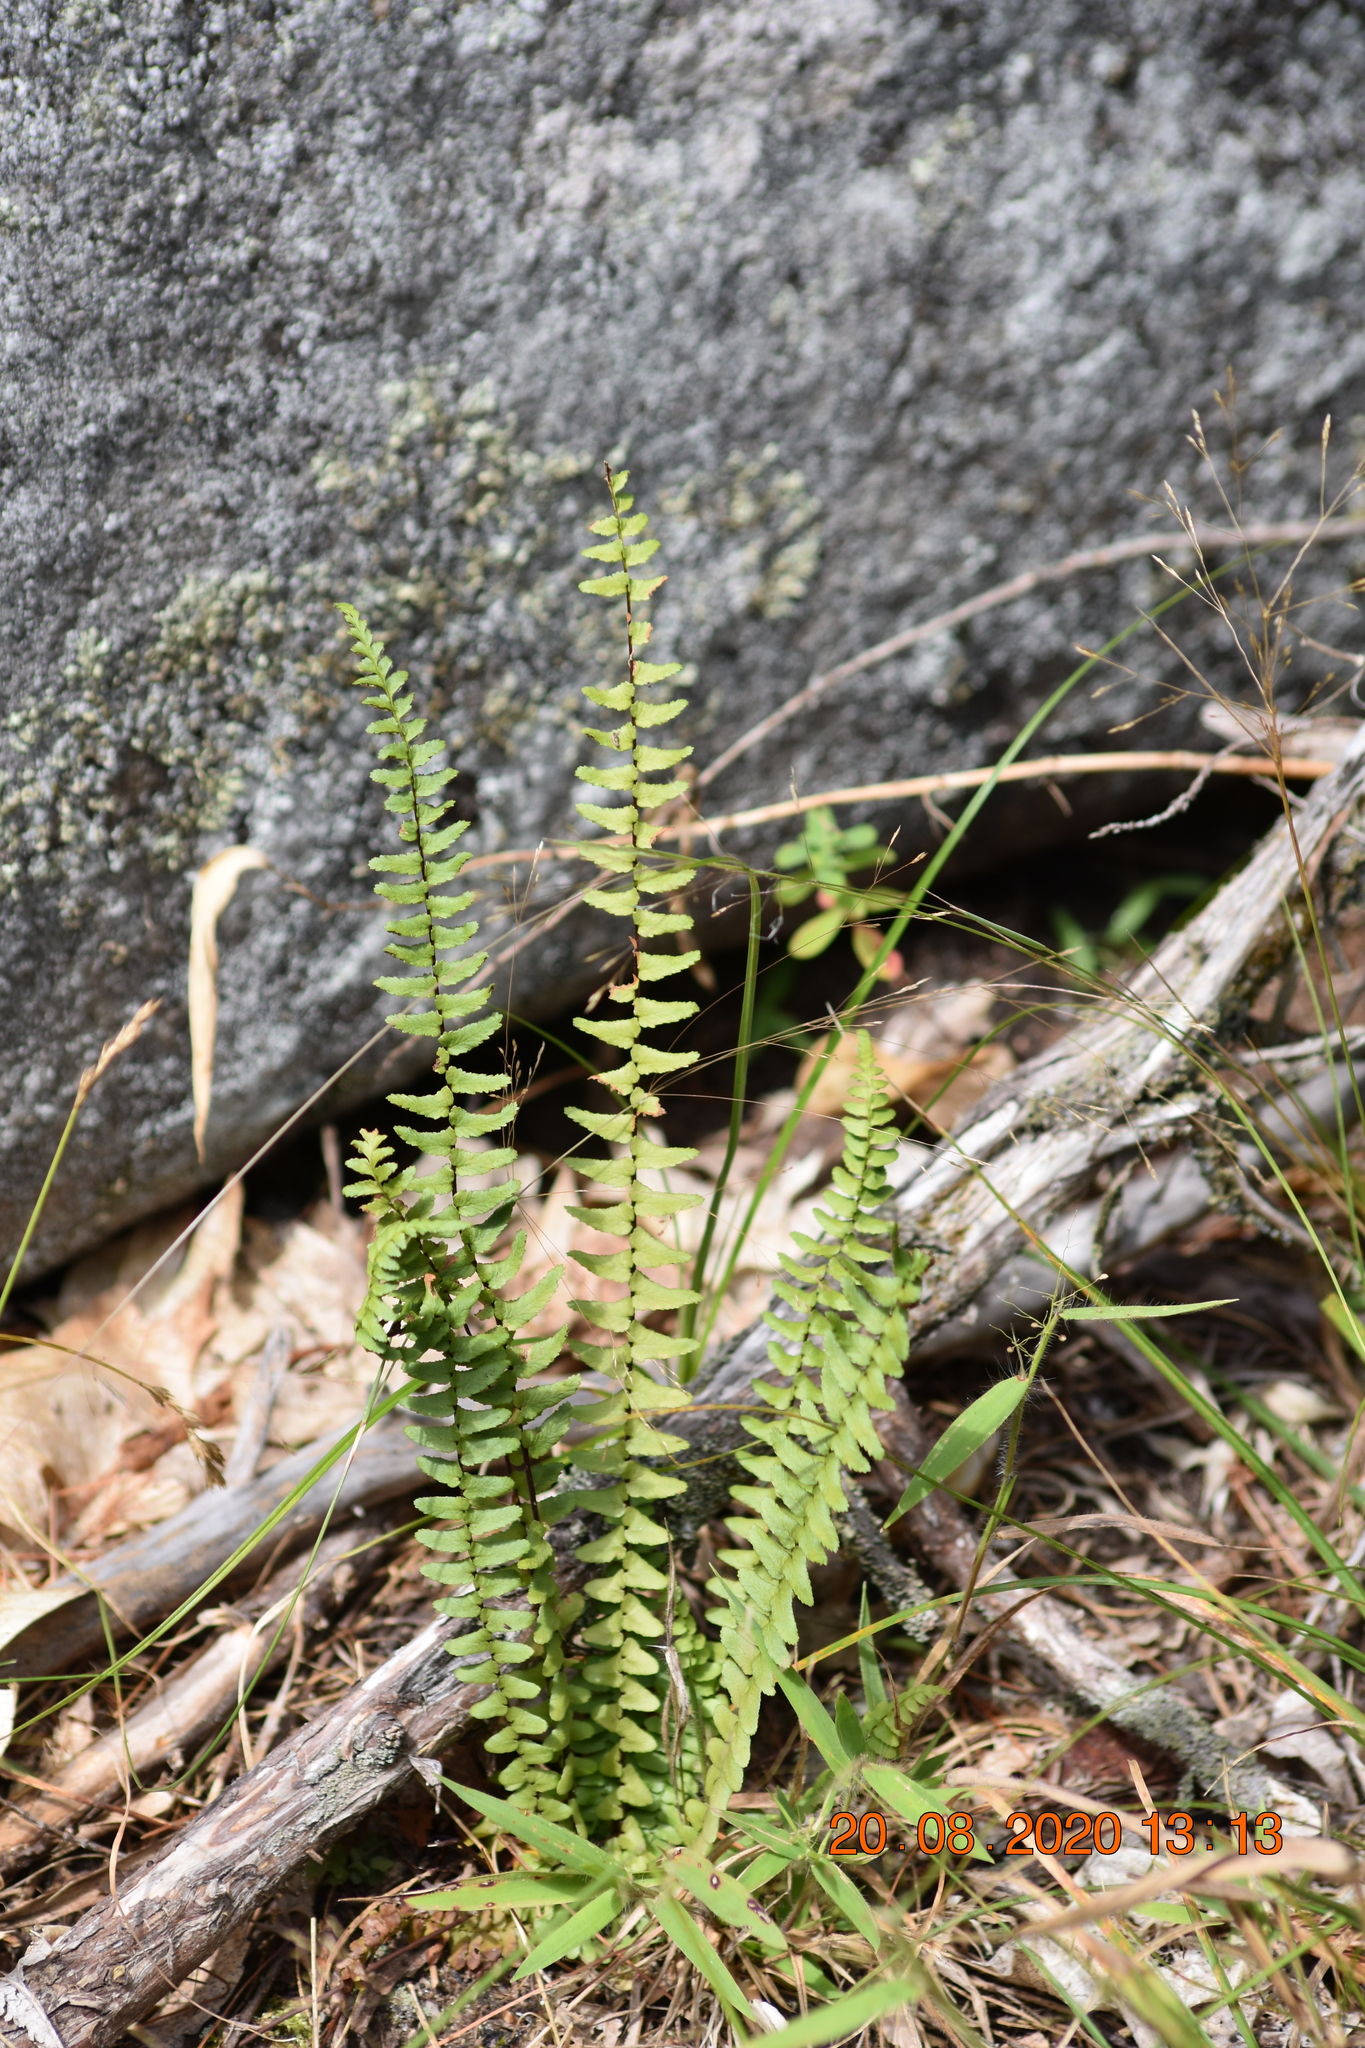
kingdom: Plantae
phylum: Tracheophyta
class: Polypodiopsida
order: Polypodiales
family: Aspleniaceae
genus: Asplenium
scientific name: Asplenium platyneuron
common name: Ebony spleenwort
